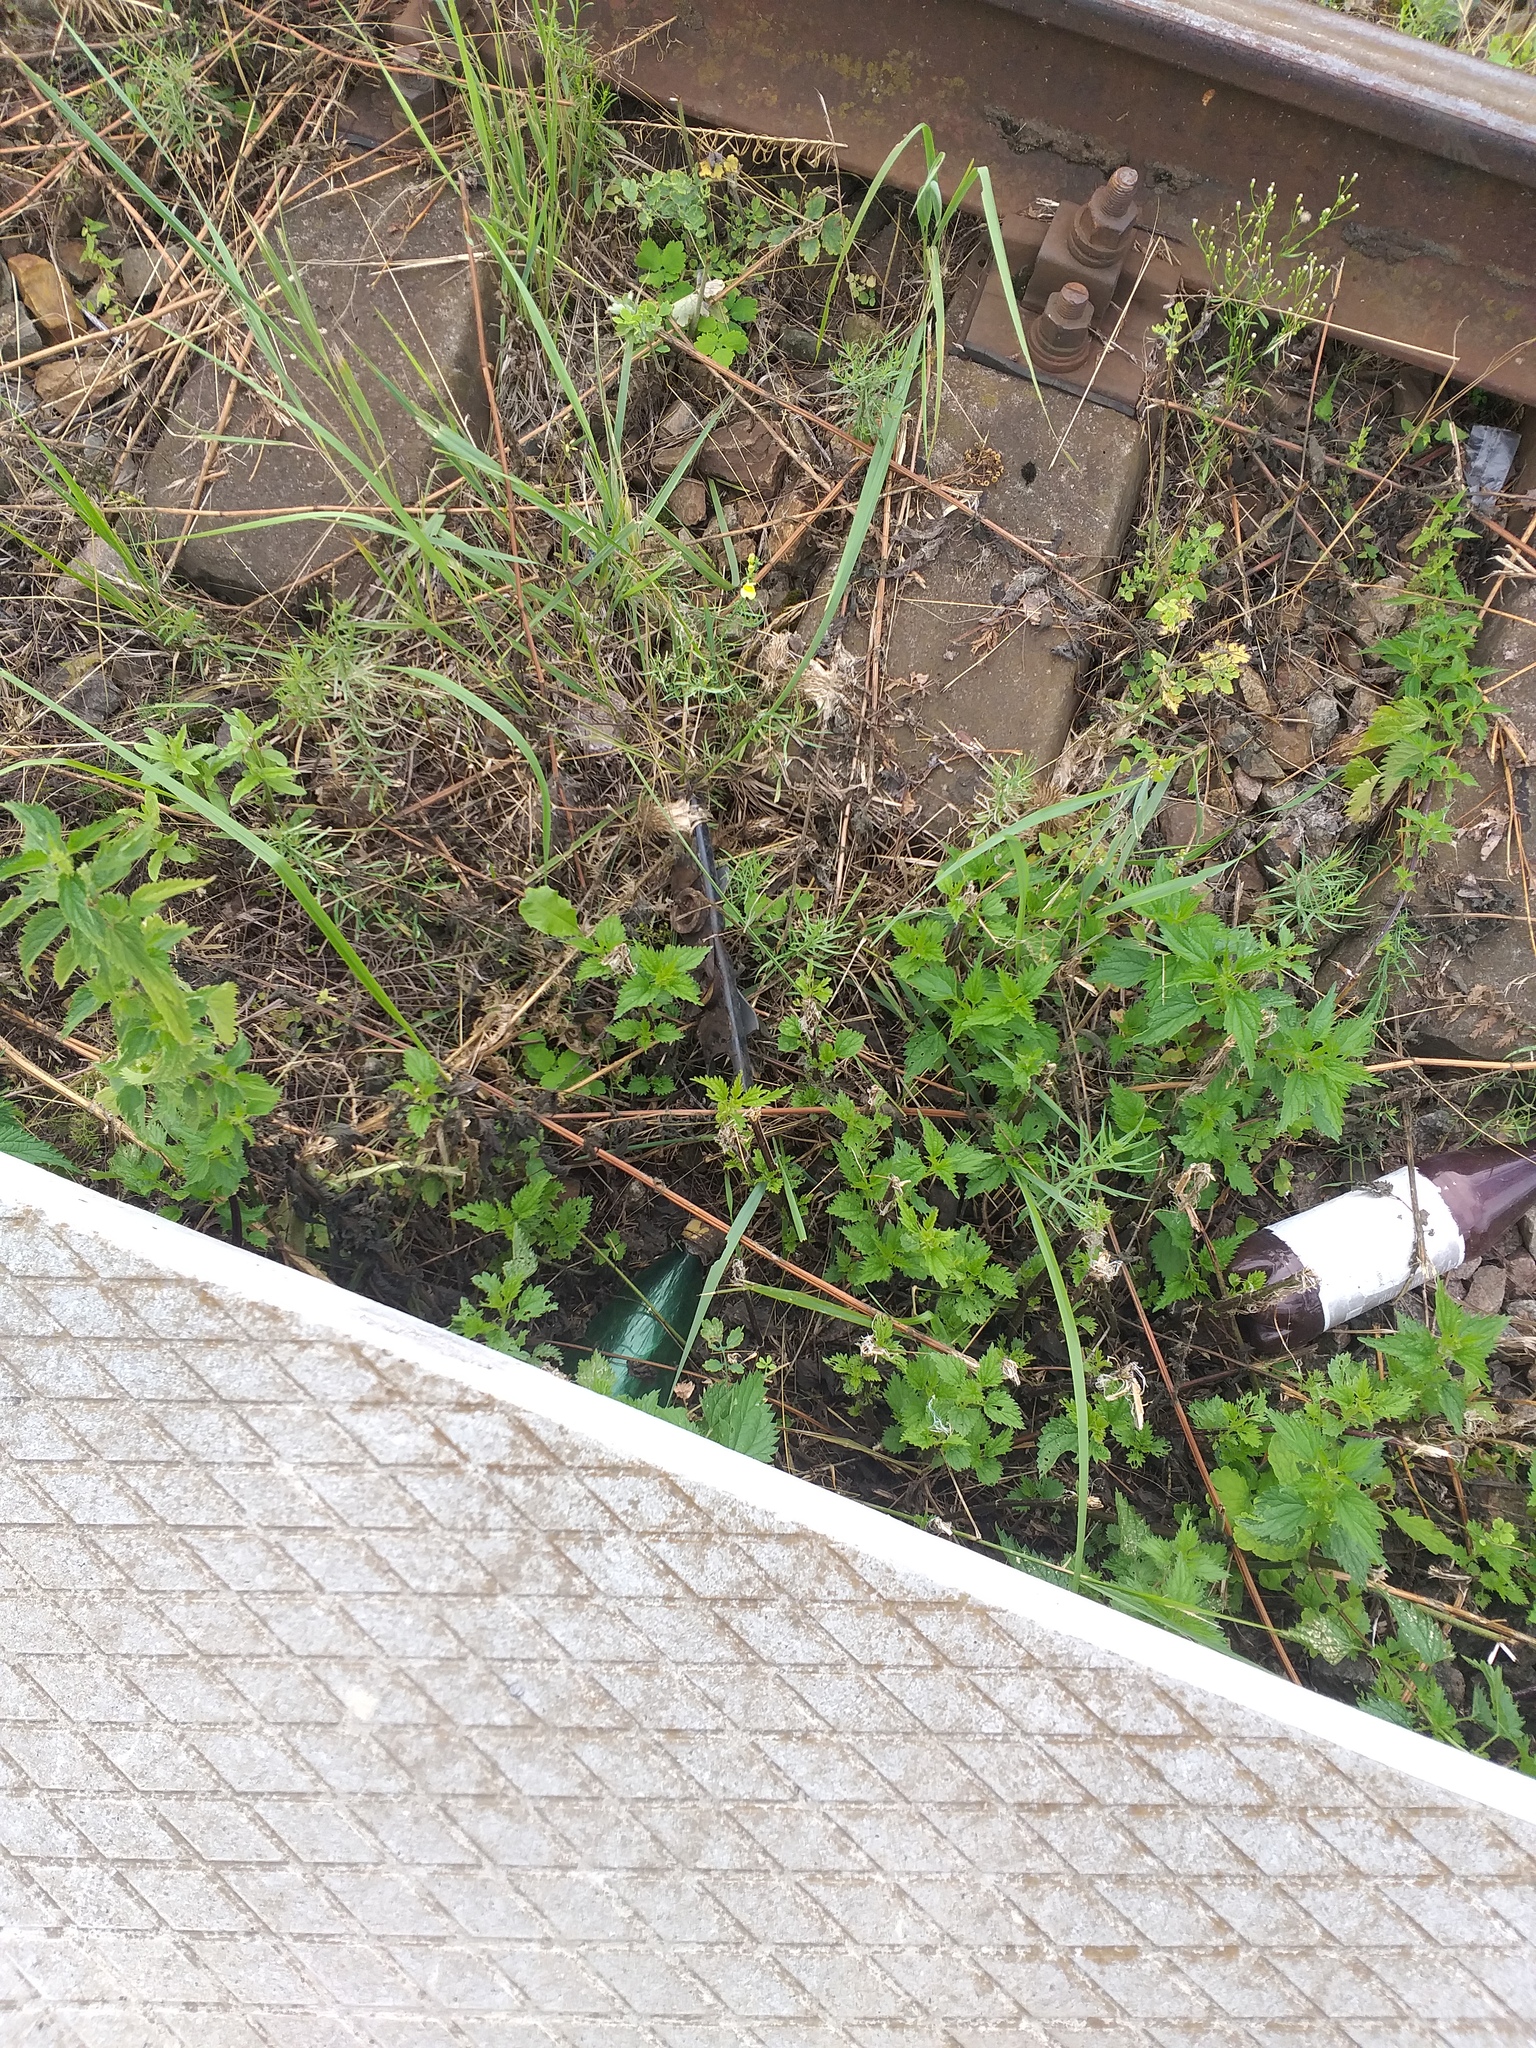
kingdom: Plantae
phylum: Tracheophyta
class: Magnoliopsida
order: Rosales
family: Urticaceae
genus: Urtica
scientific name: Urtica dioica
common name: Common nettle
